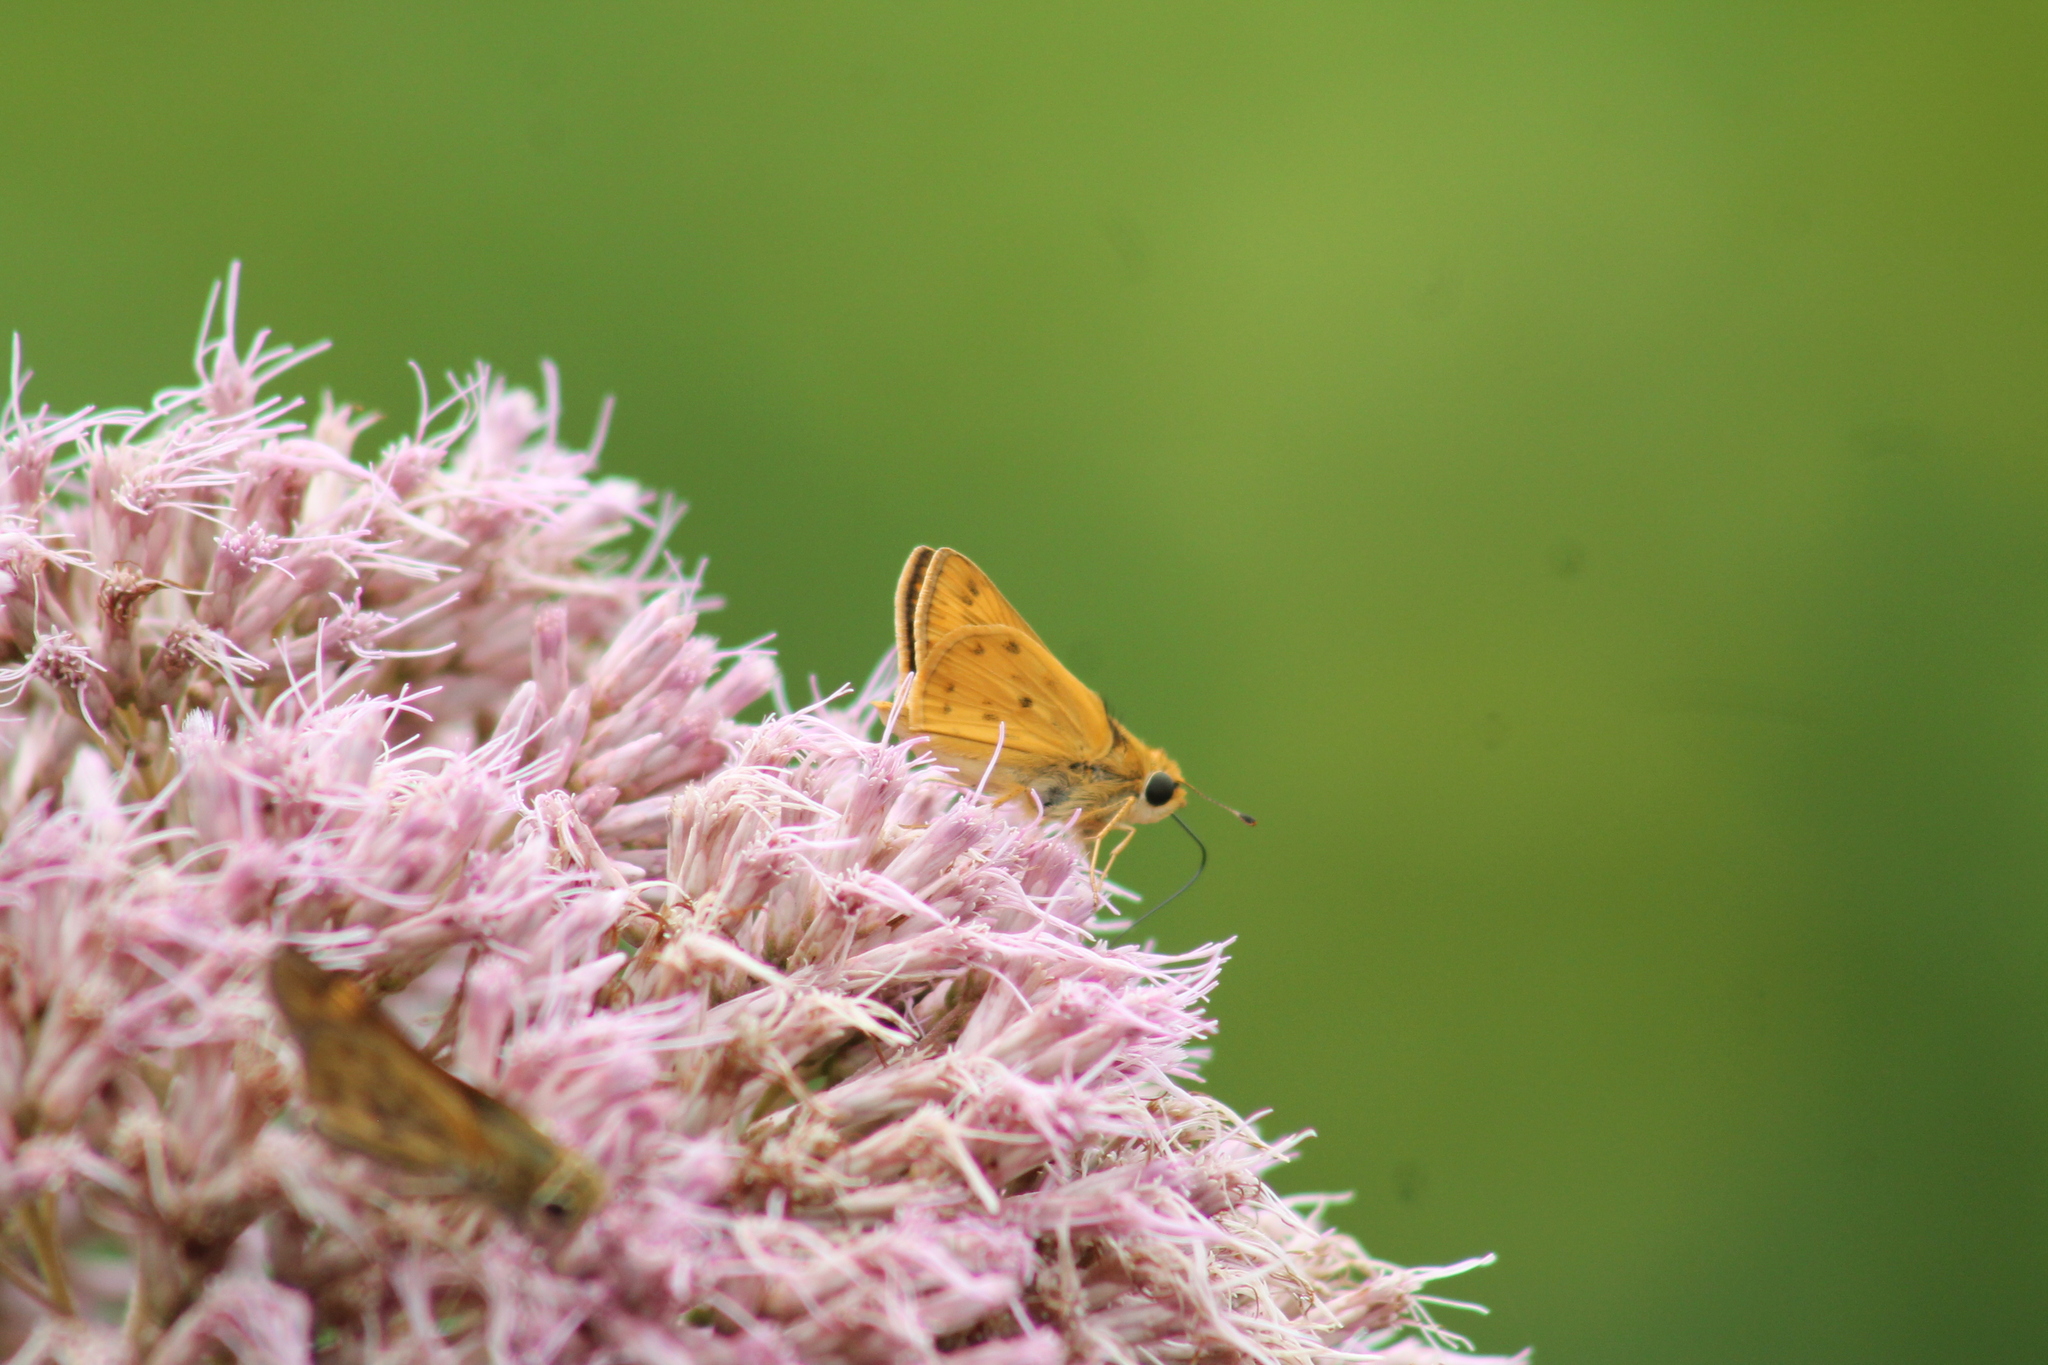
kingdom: Animalia
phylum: Arthropoda
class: Insecta
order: Lepidoptera
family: Hesperiidae
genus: Hylephila
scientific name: Hylephila phyleus
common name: Fiery skipper
